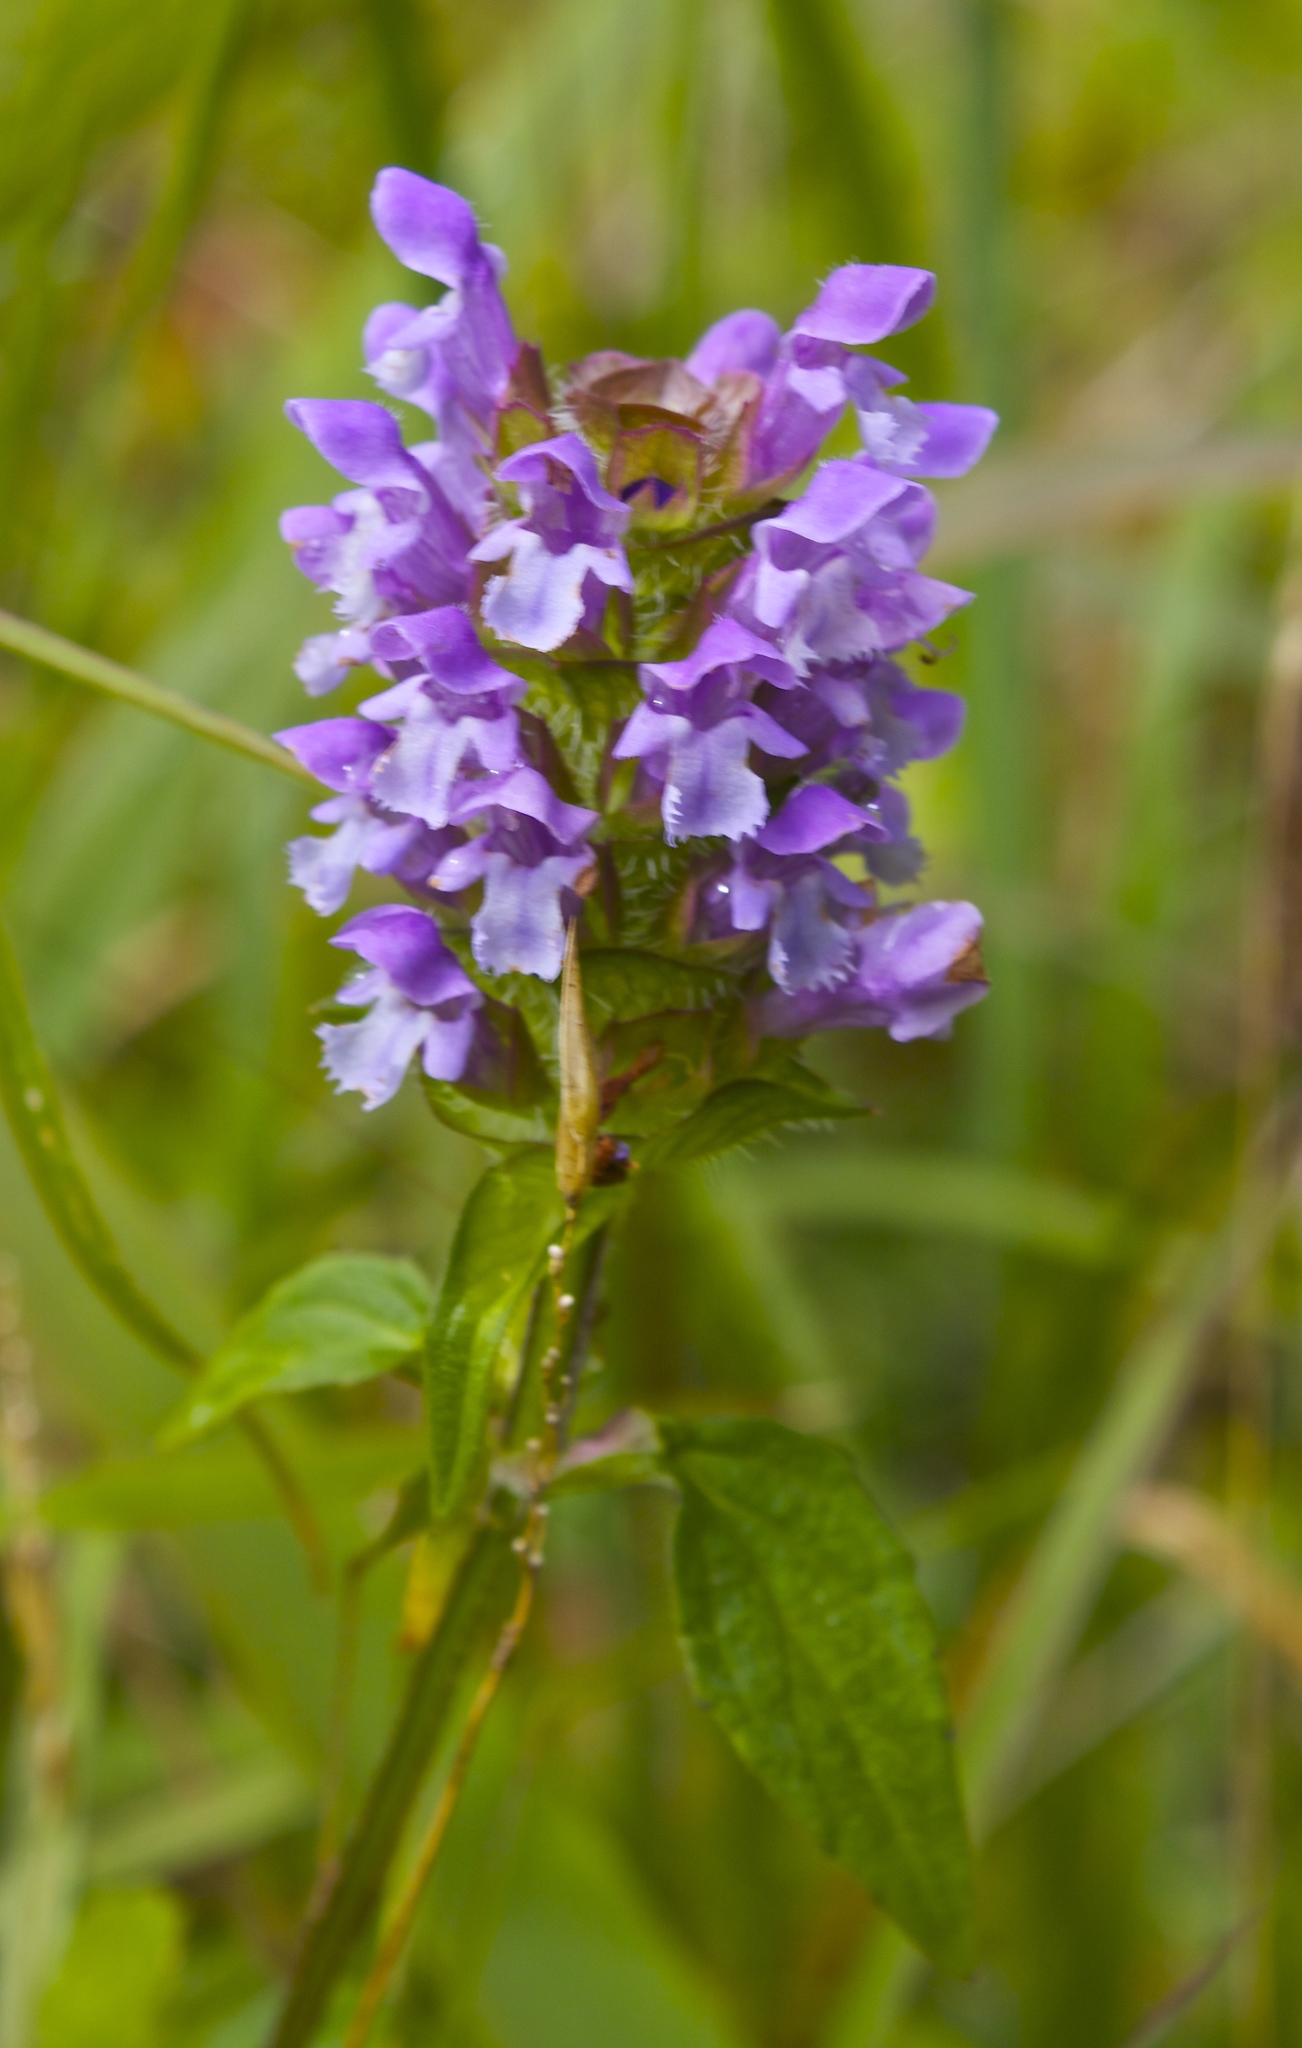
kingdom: Plantae
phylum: Tracheophyta
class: Magnoliopsida
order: Lamiales
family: Lamiaceae
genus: Prunella
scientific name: Prunella vulgaris
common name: Heal-all
